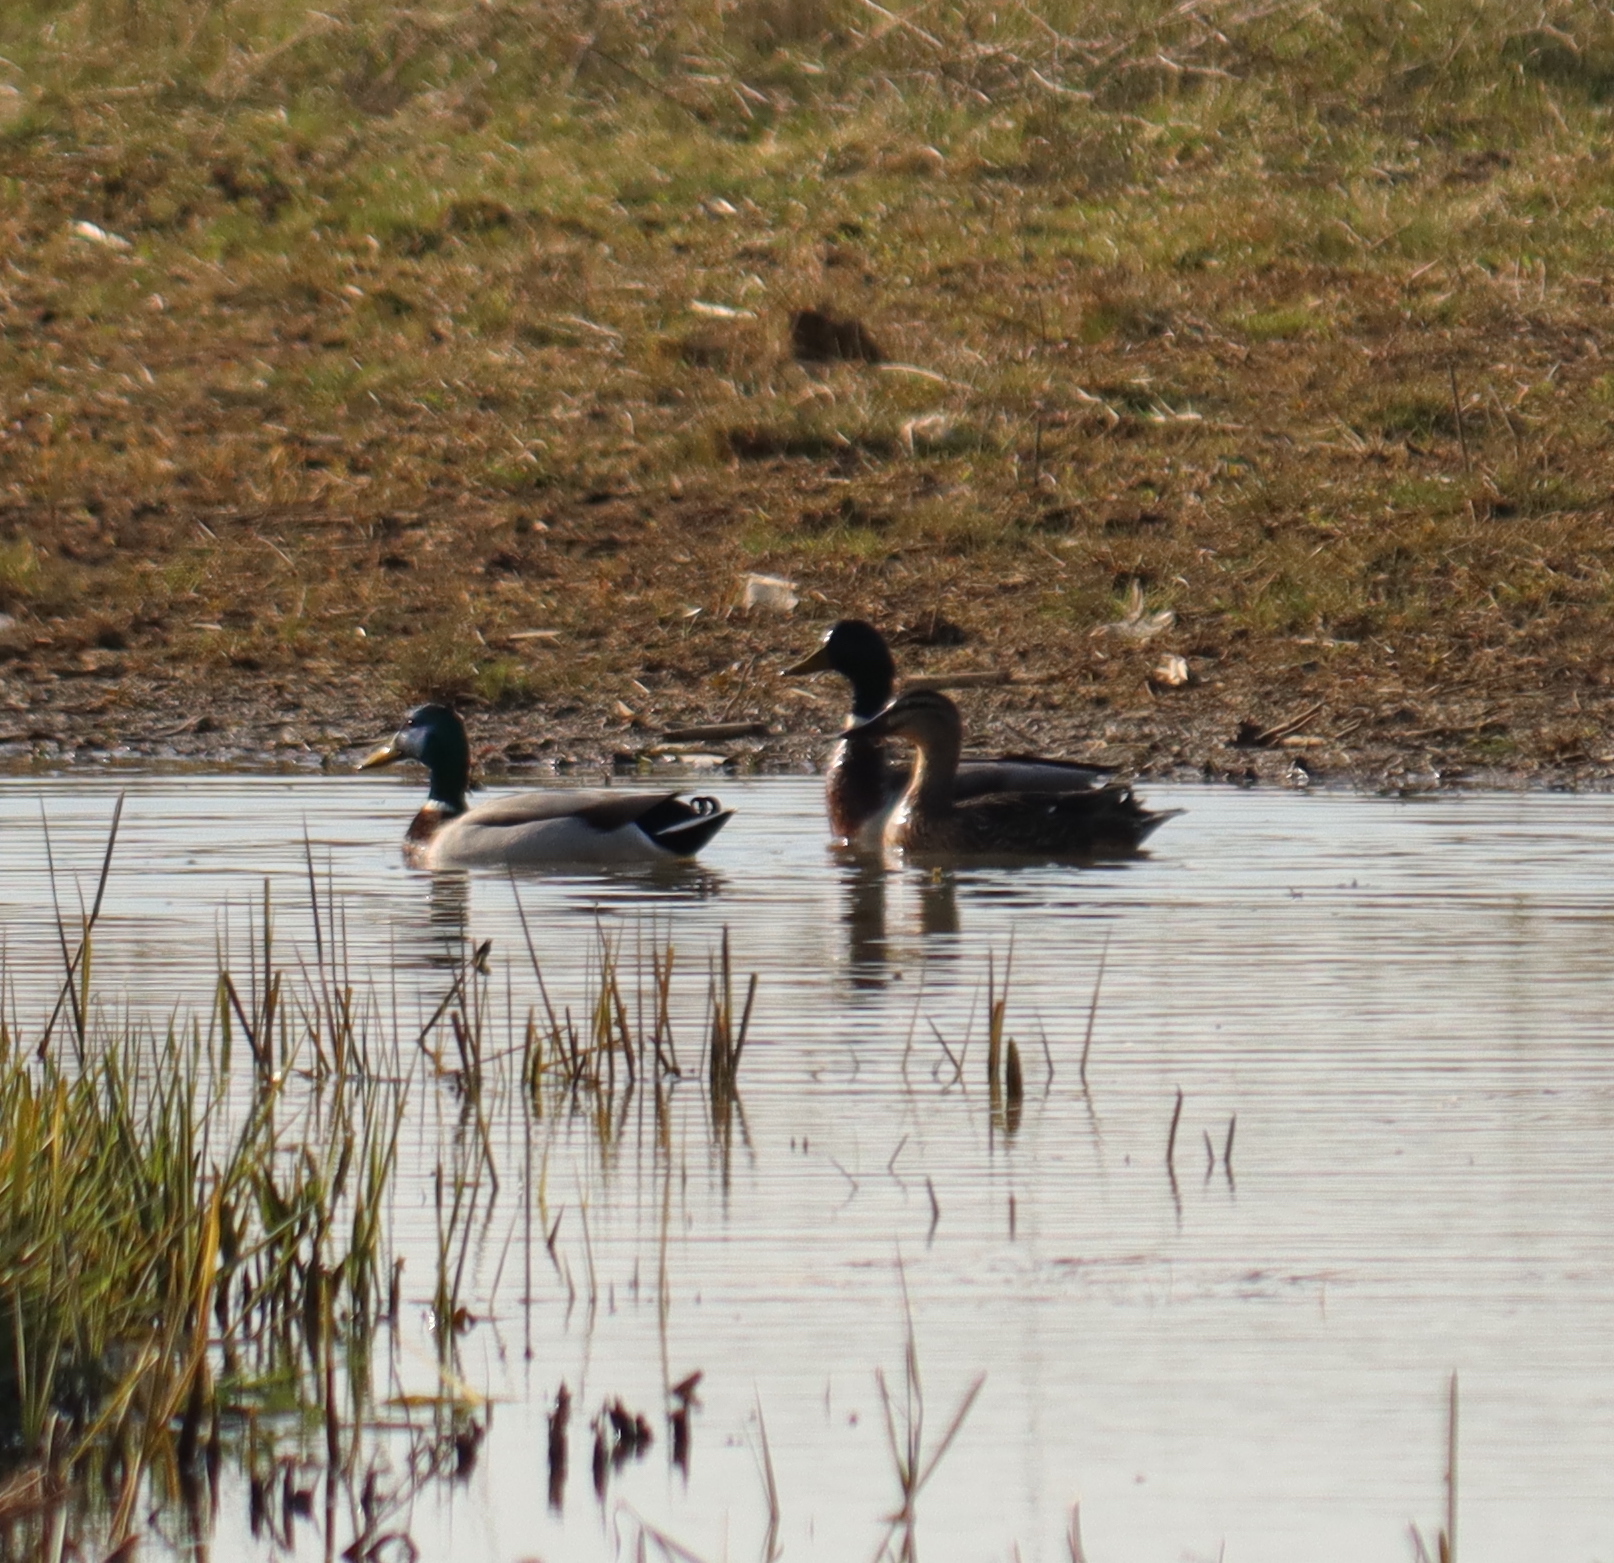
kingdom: Animalia
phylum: Chordata
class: Aves
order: Anseriformes
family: Anatidae
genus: Anas
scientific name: Anas platyrhynchos
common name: Mallard
